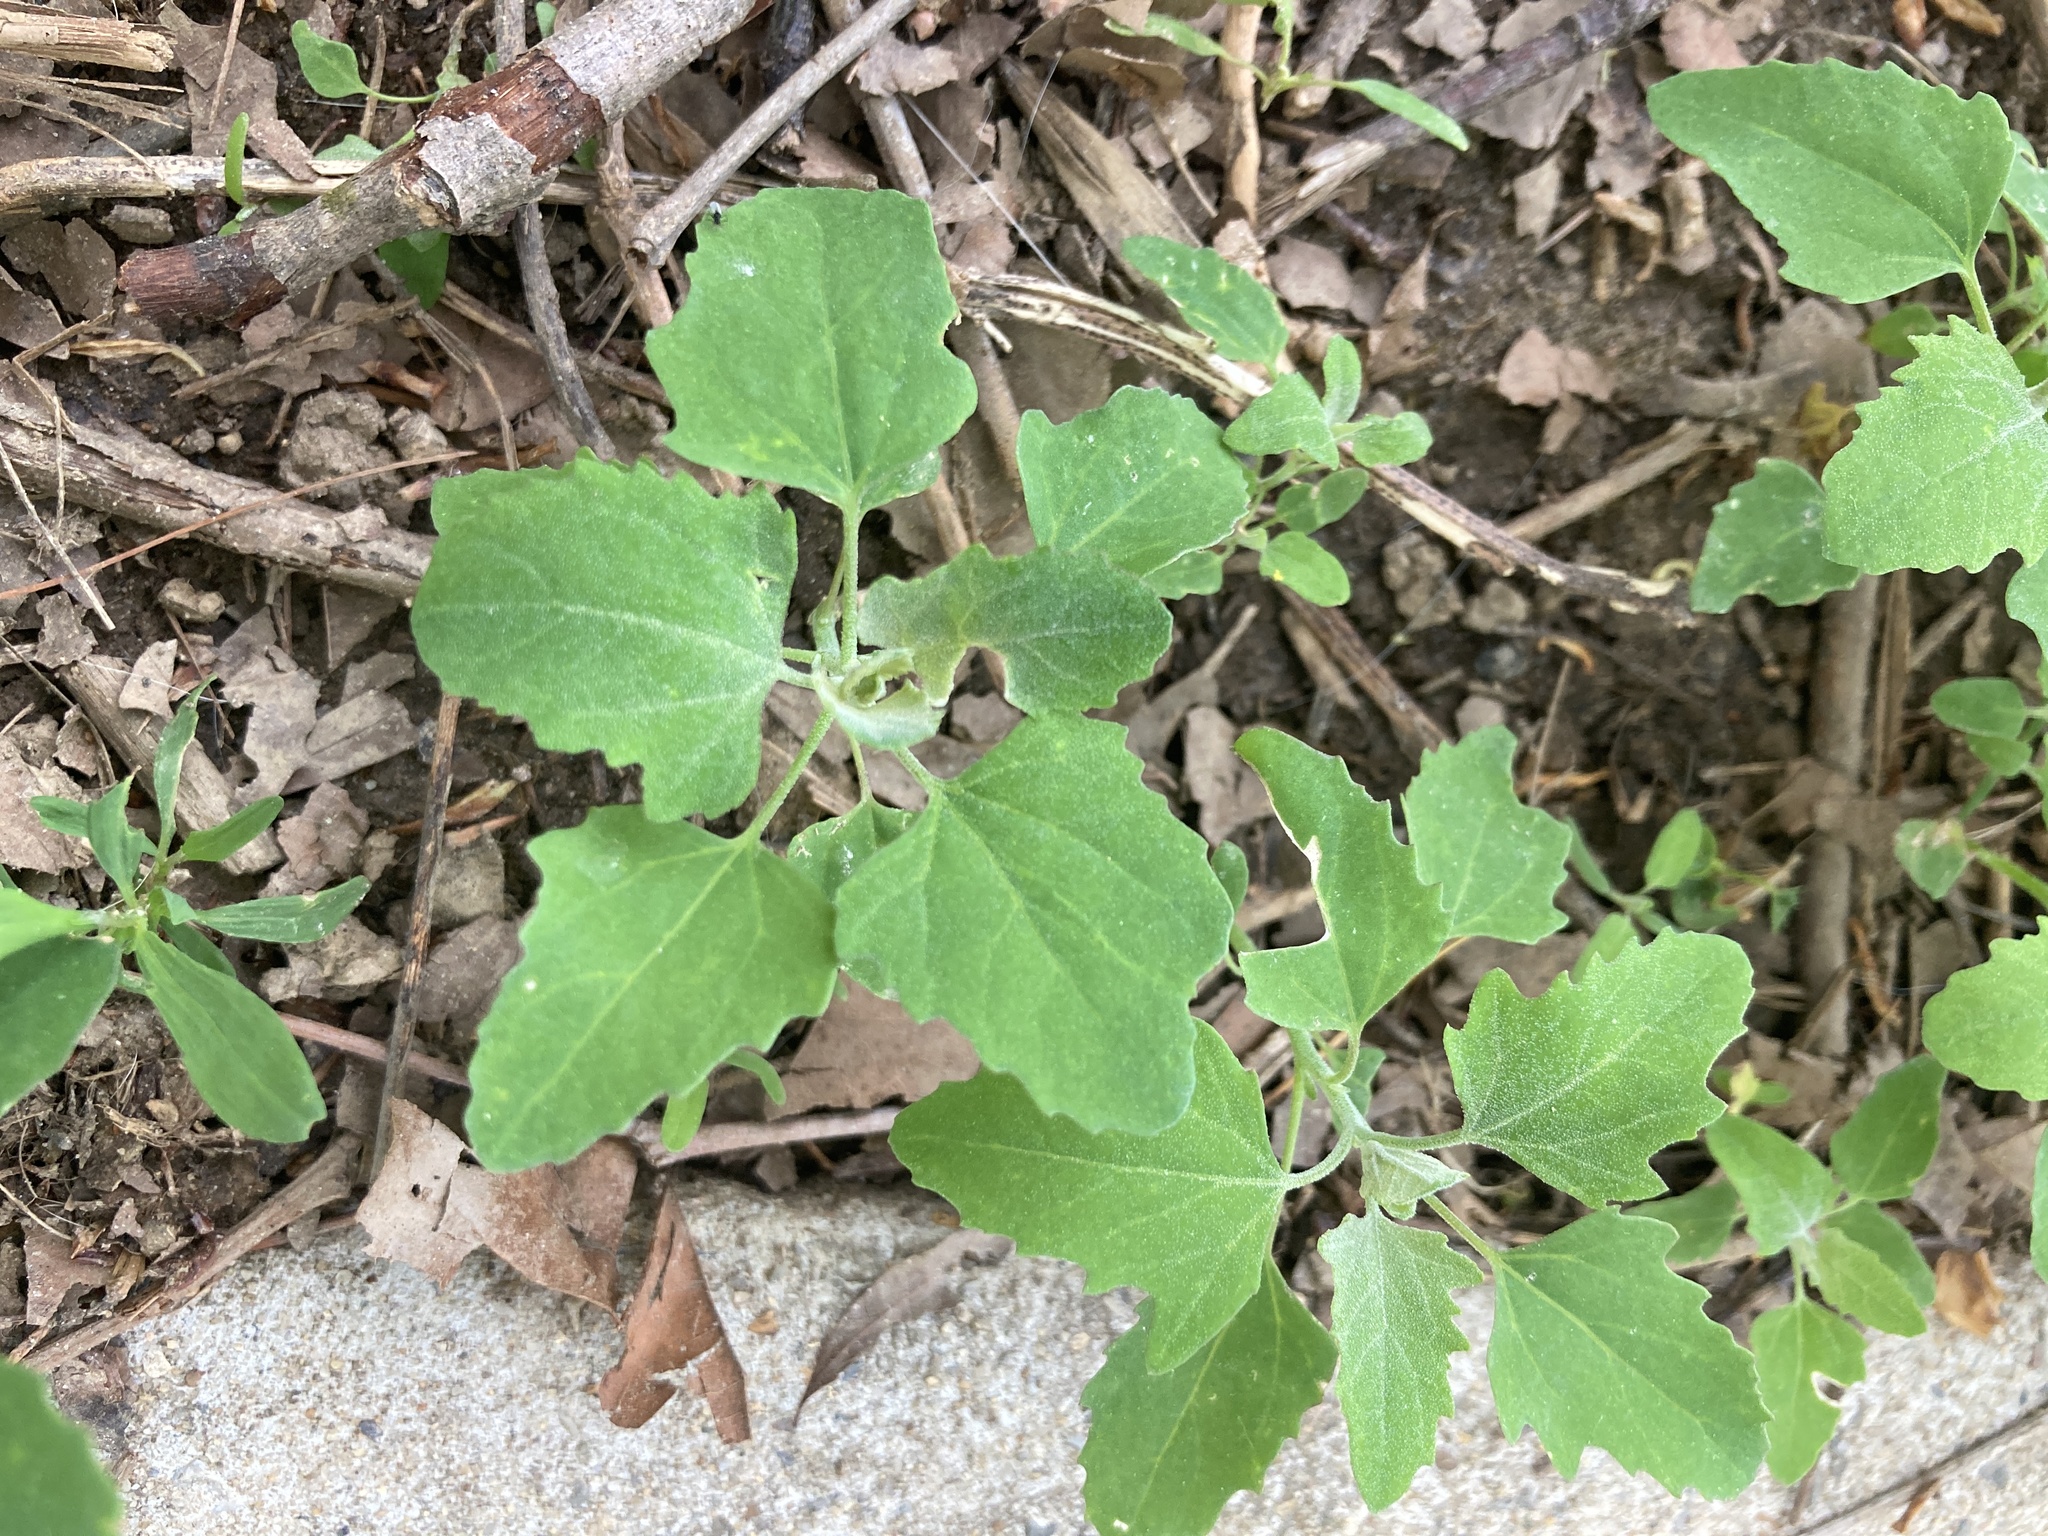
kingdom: Plantae
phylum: Tracheophyta
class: Magnoliopsida
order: Caryophyllales
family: Amaranthaceae
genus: Chenopodium
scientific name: Chenopodium album
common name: Fat-hen
